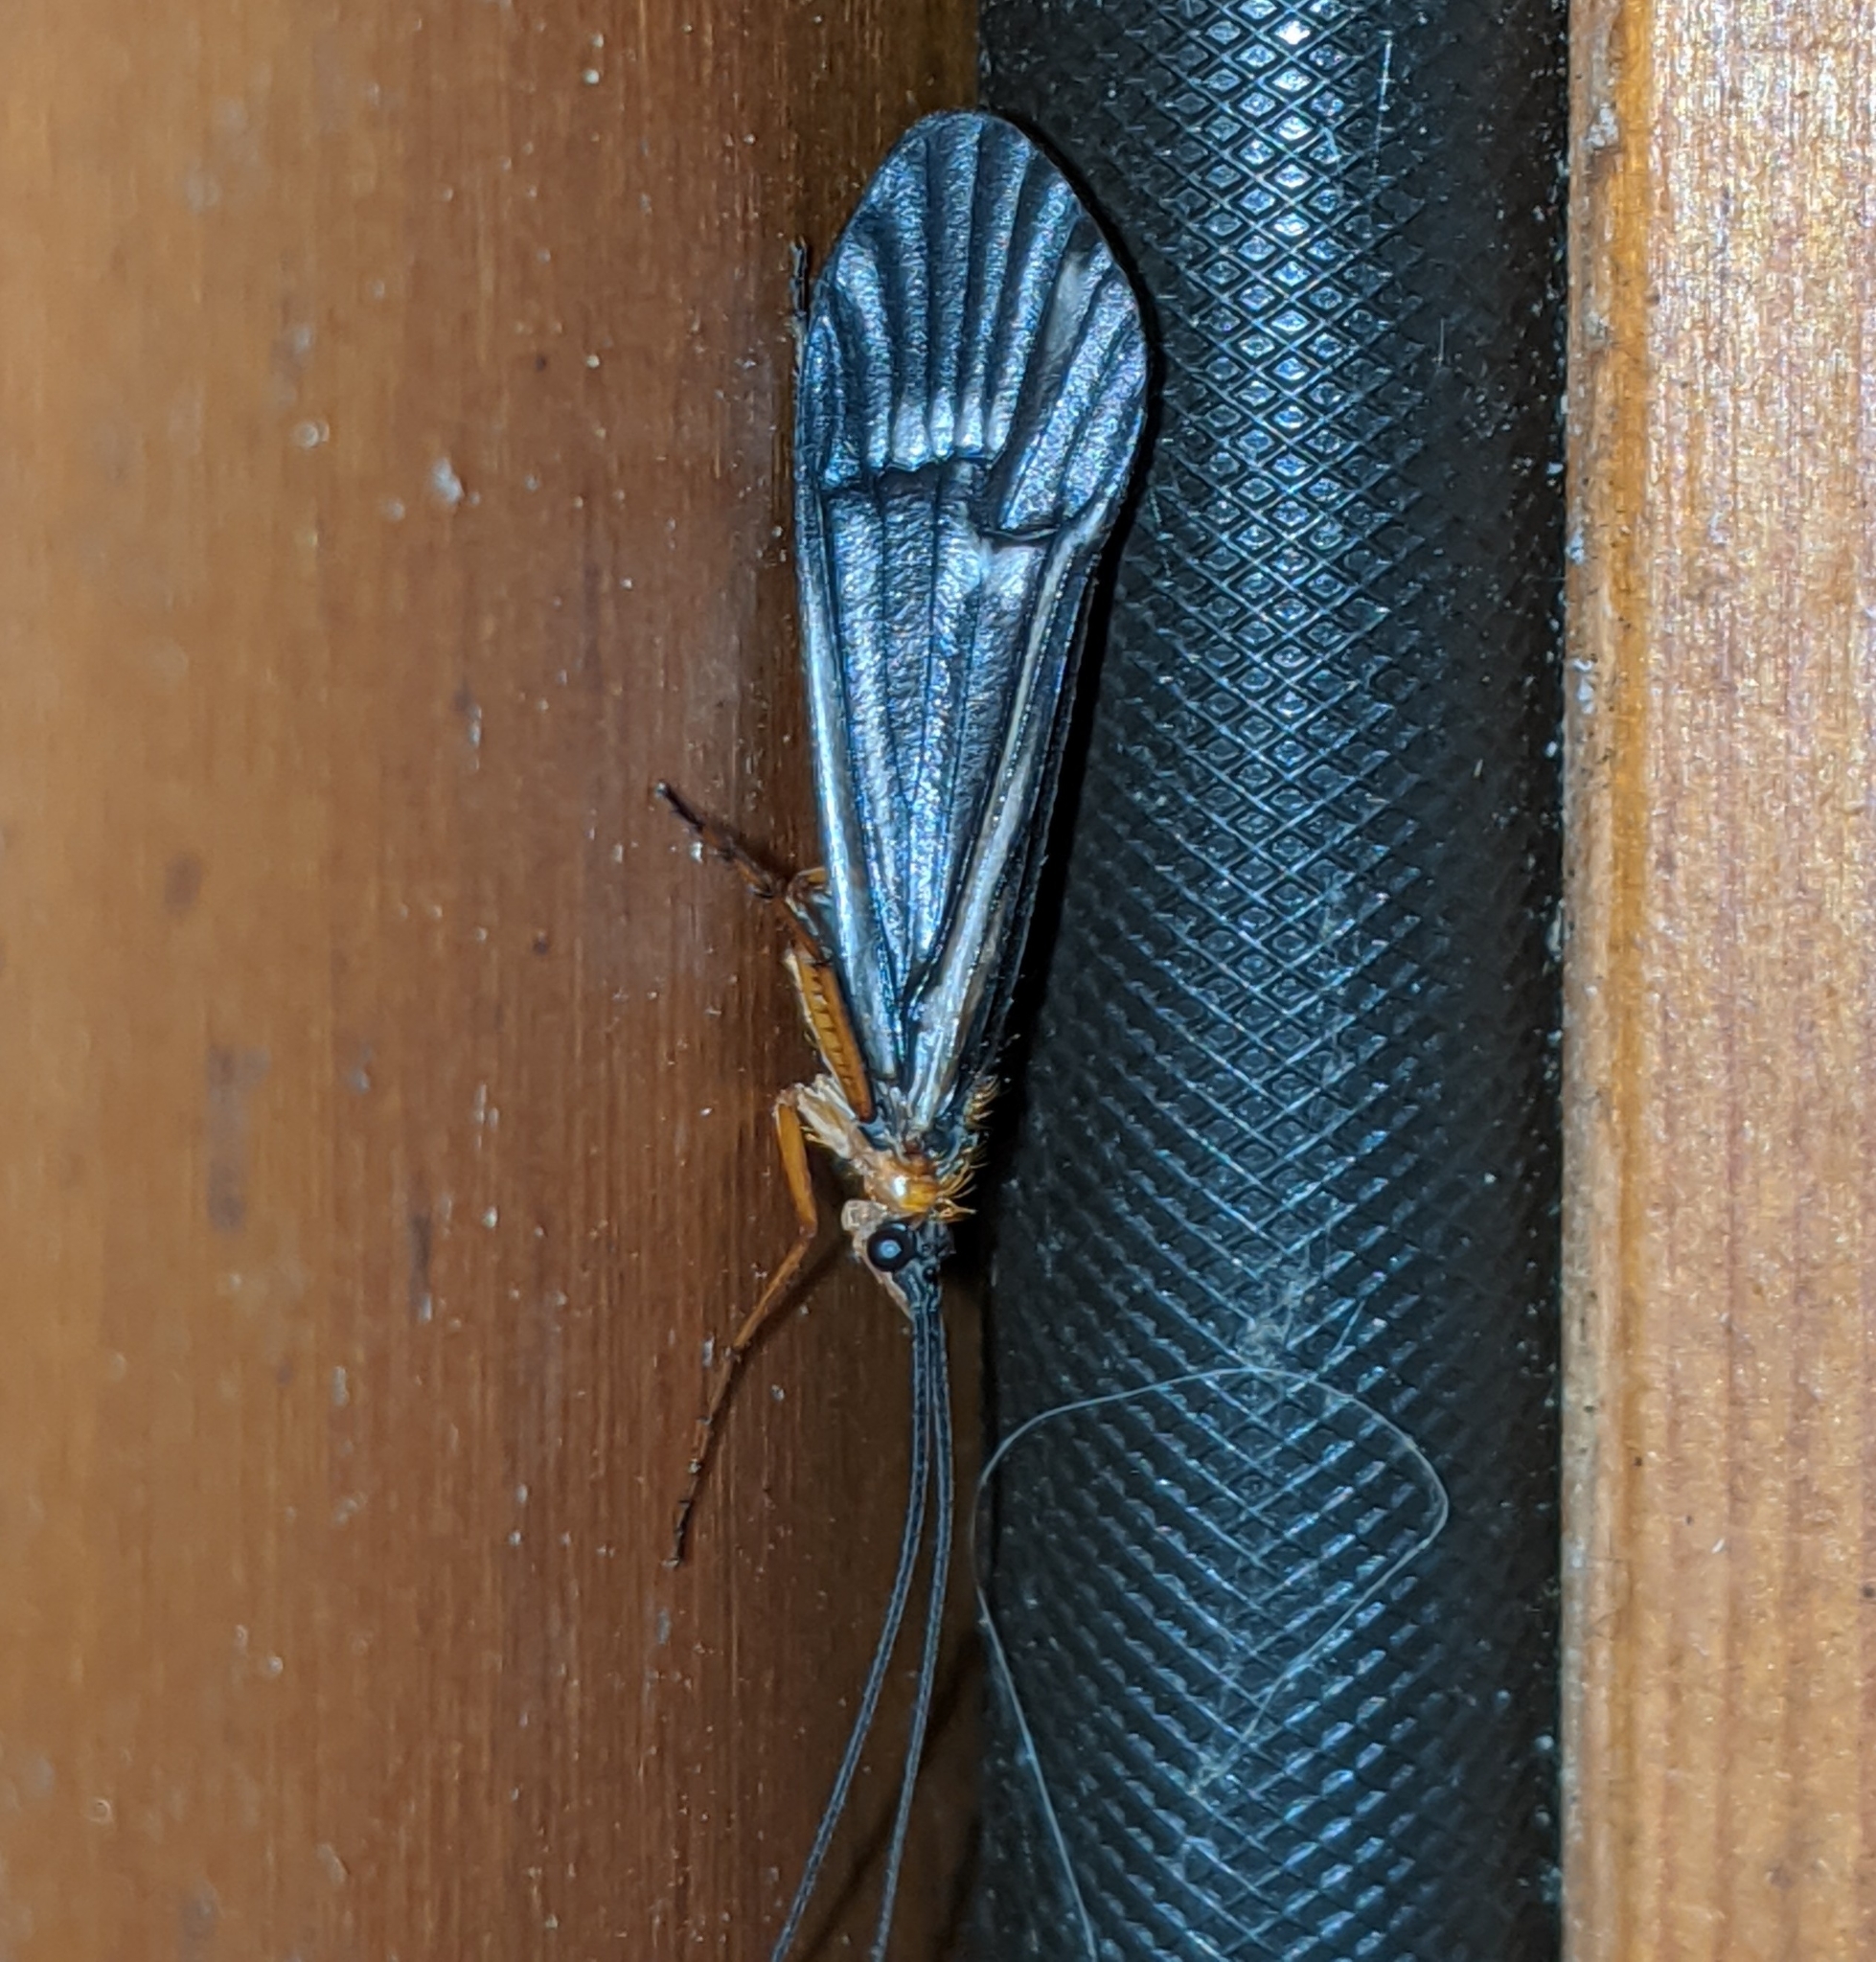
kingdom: Animalia
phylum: Arthropoda
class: Insecta
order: Trichoptera
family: Limnephilidae
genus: Halesochila
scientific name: Halesochila taylori
